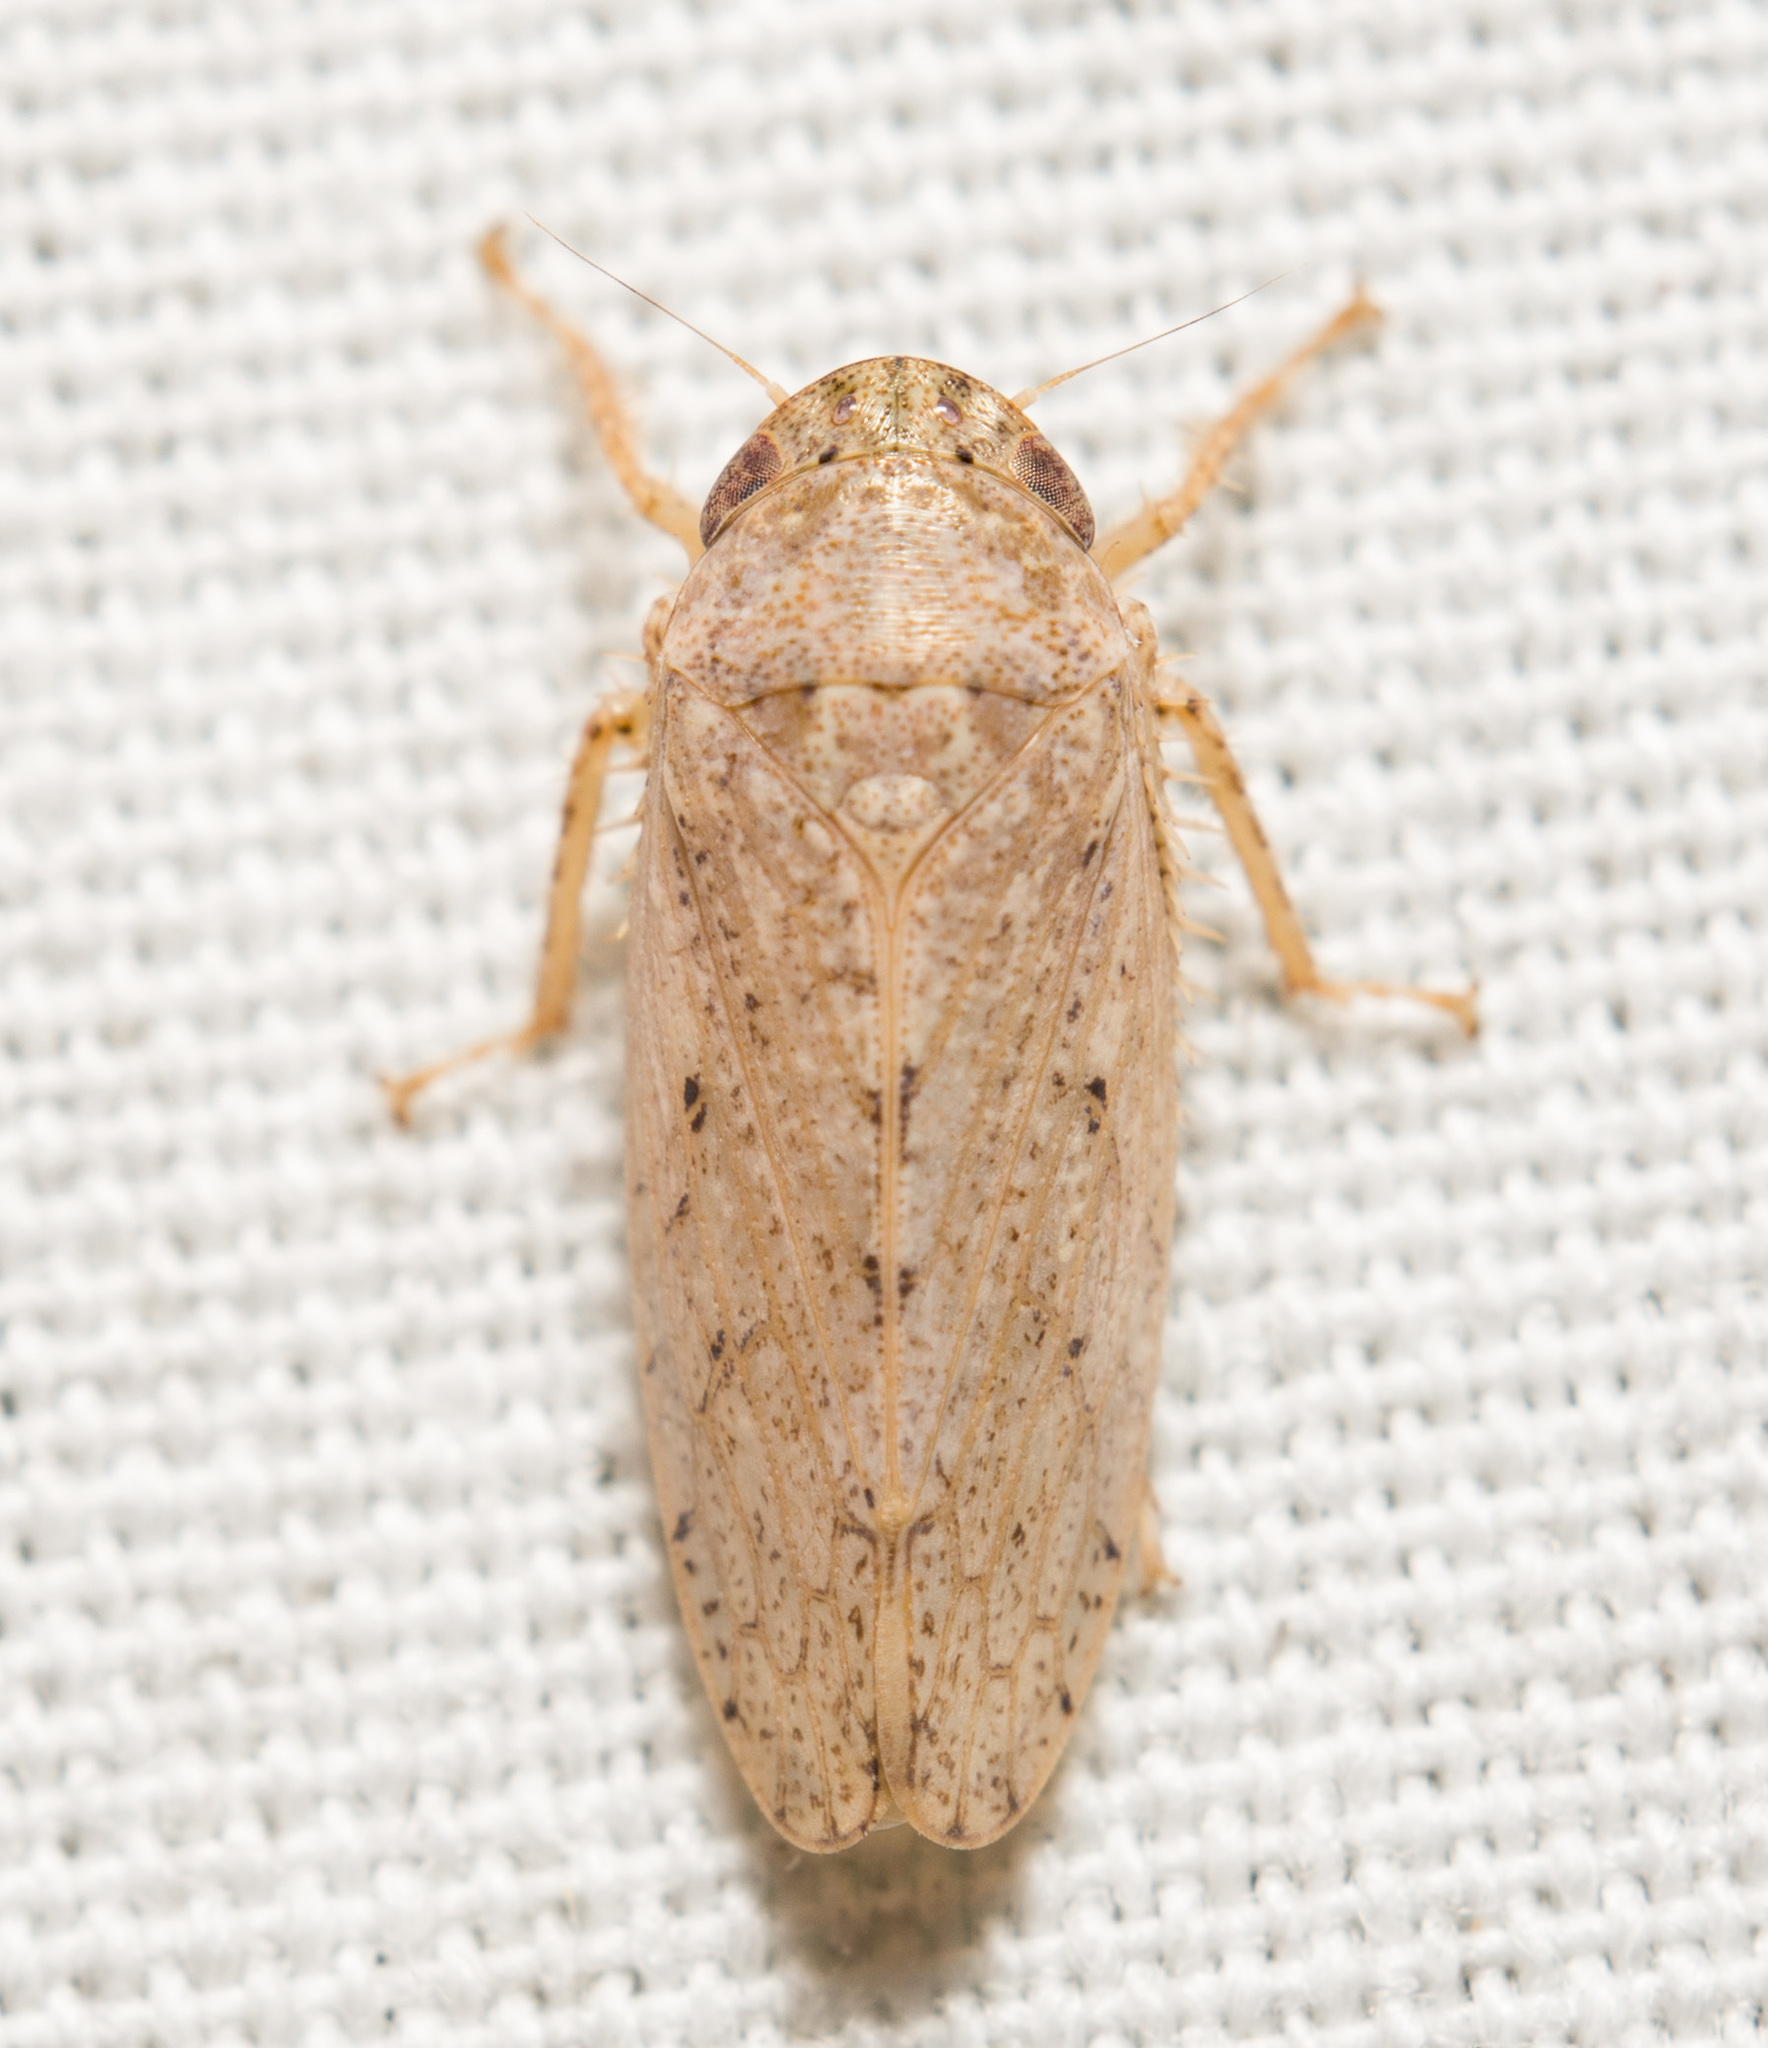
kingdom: Animalia
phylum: Arthropoda
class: Insecta
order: Hemiptera
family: Cicadellidae
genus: Curtara
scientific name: Curtara insularis
